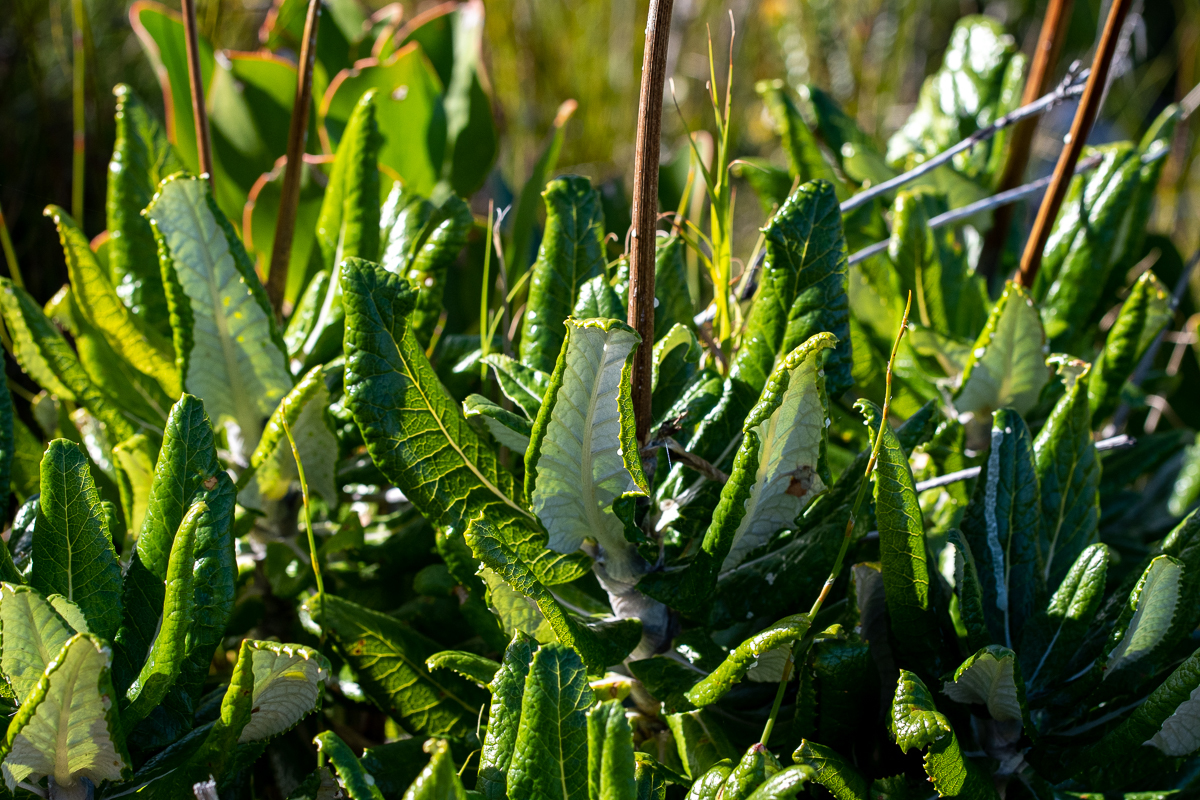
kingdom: Plantae
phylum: Tracheophyta
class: Magnoliopsida
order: Apiales
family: Apiaceae
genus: Hermas
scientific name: Hermas villosa
